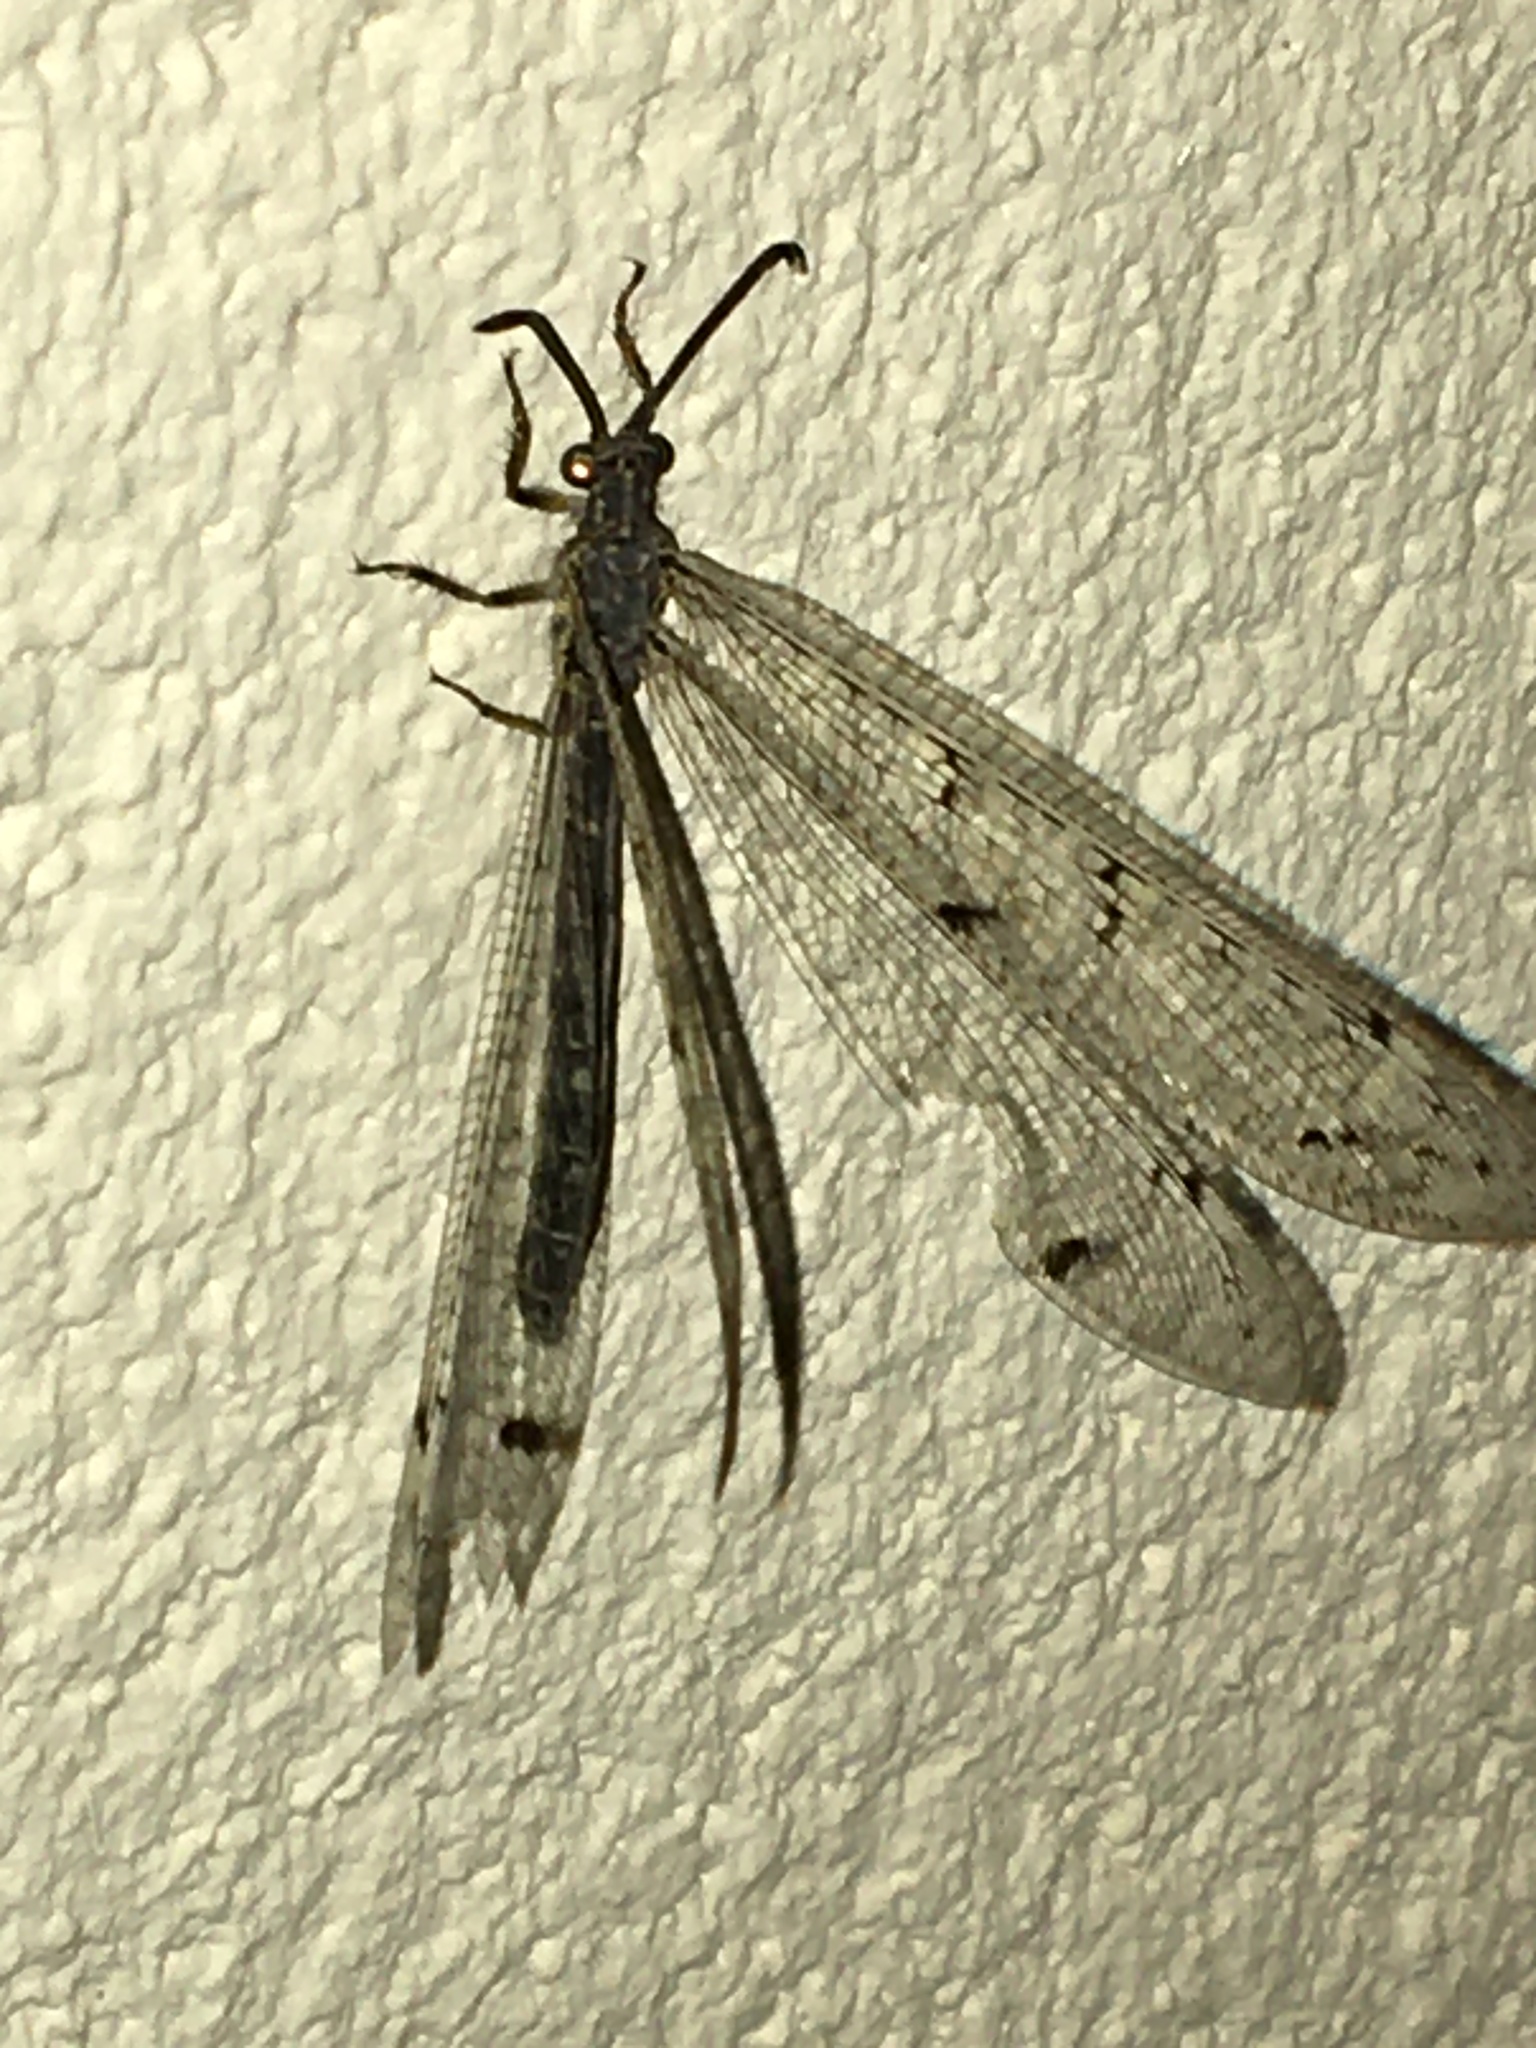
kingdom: Animalia
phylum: Arthropoda
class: Insecta
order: Neuroptera
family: Myrmeleontidae
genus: Distoleon
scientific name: Distoleon tetragrammicus
